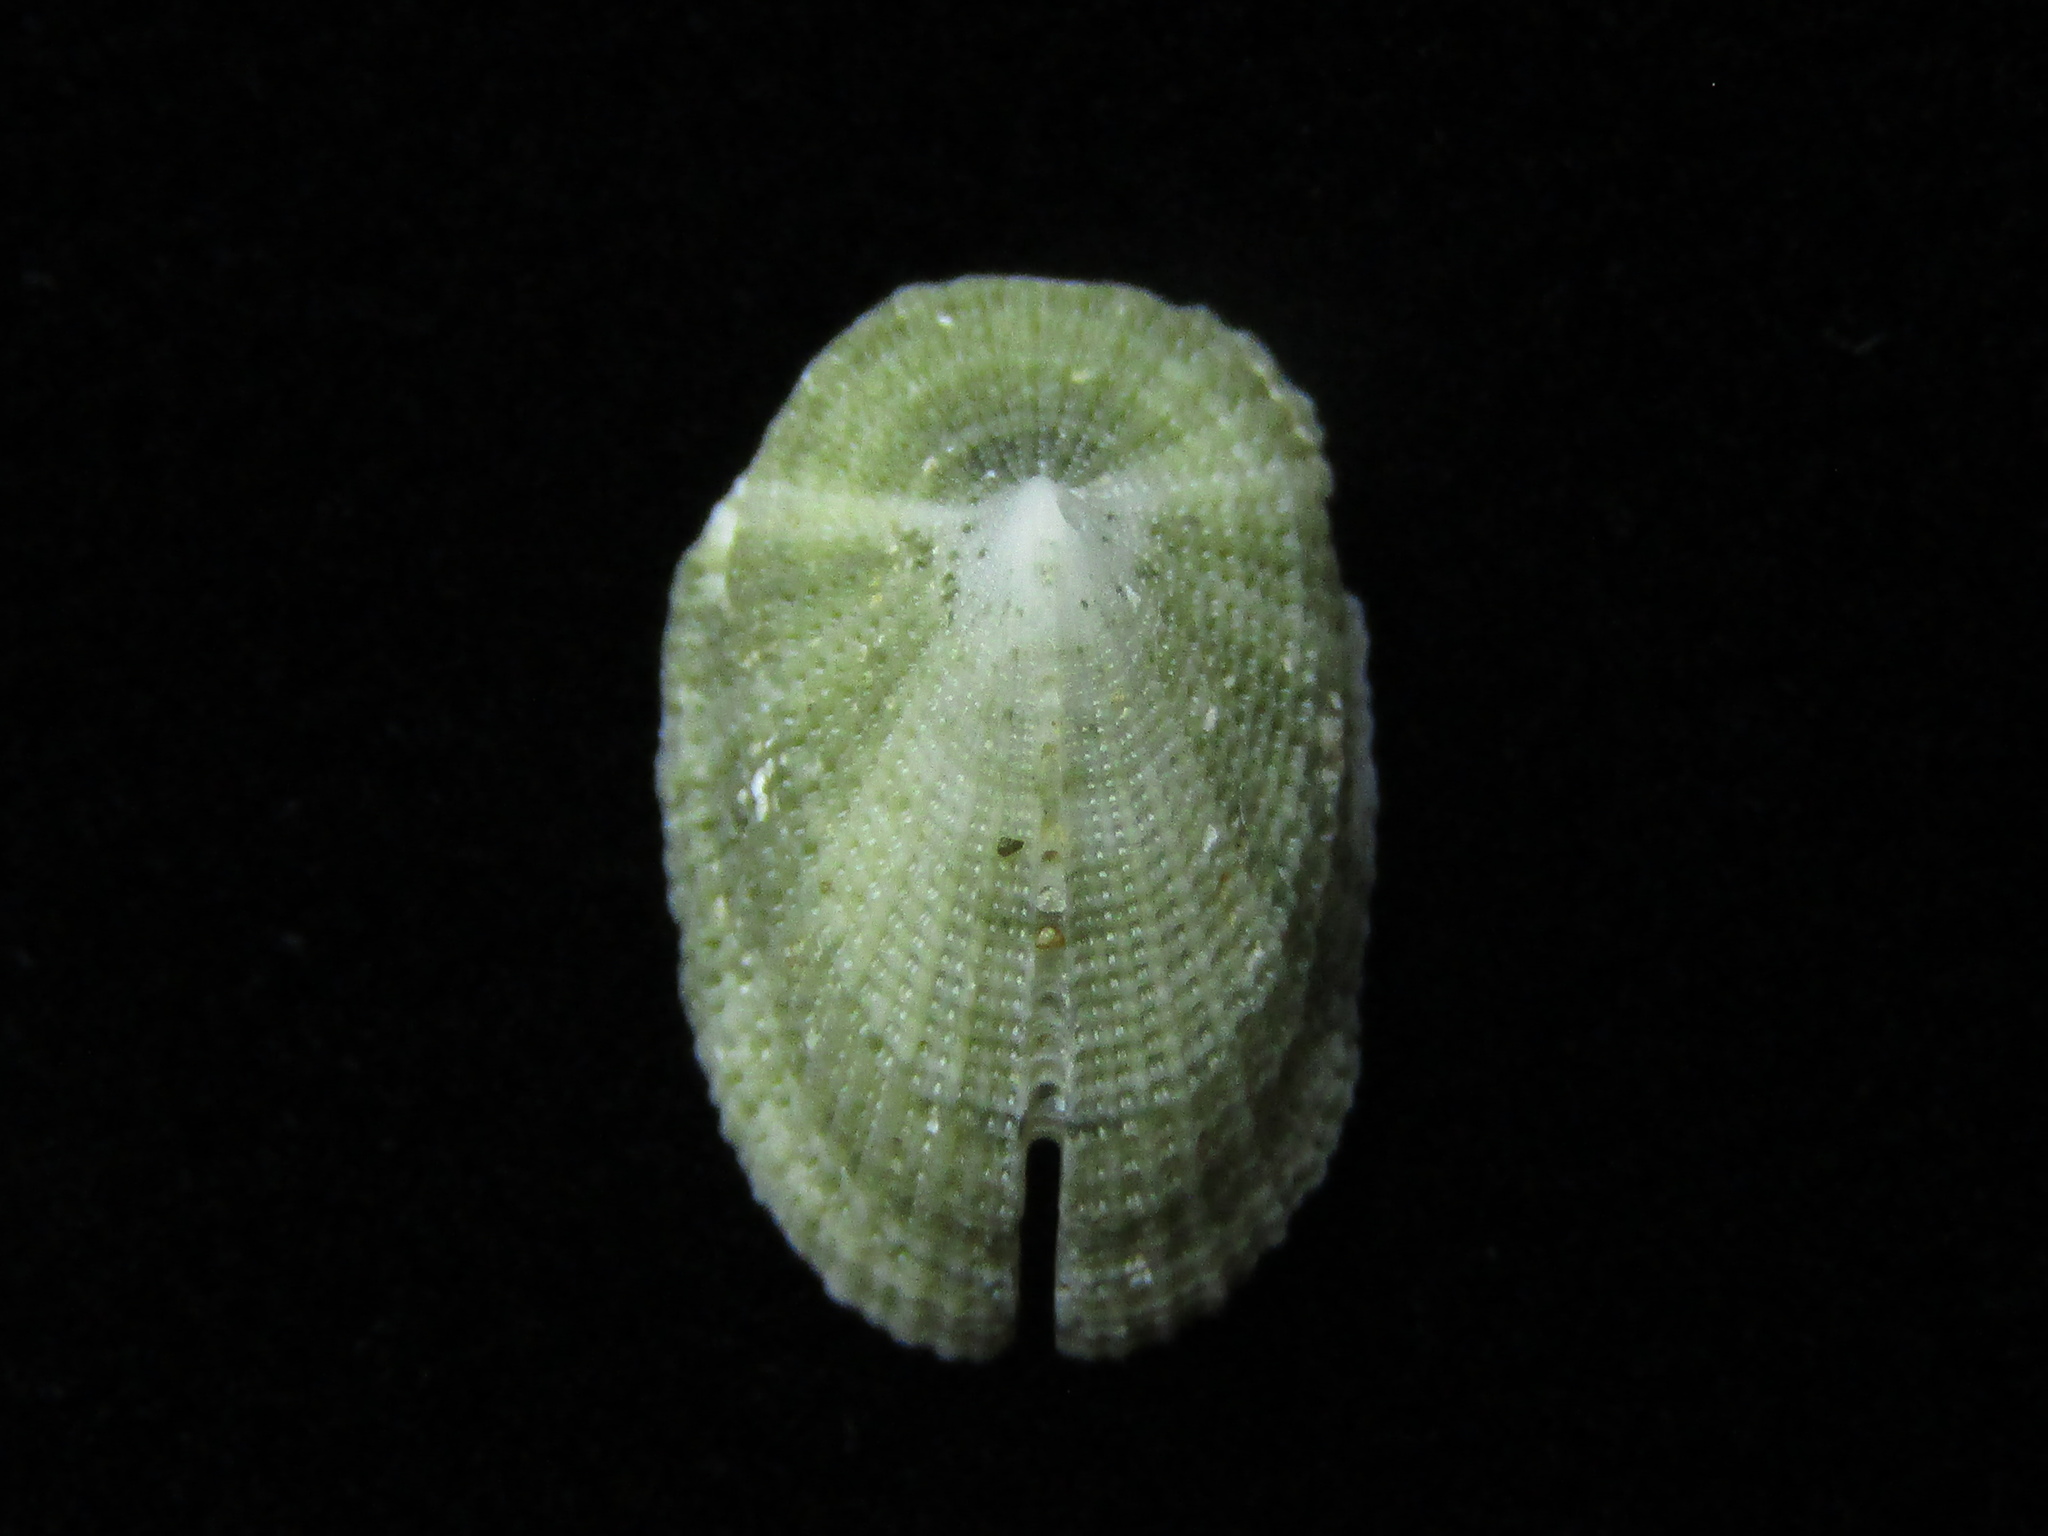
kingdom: Animalia
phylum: Mollusca
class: Gastropoda
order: Lepetellida
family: Fissurellidae
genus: Emarginula
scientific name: Emarginula striatula
